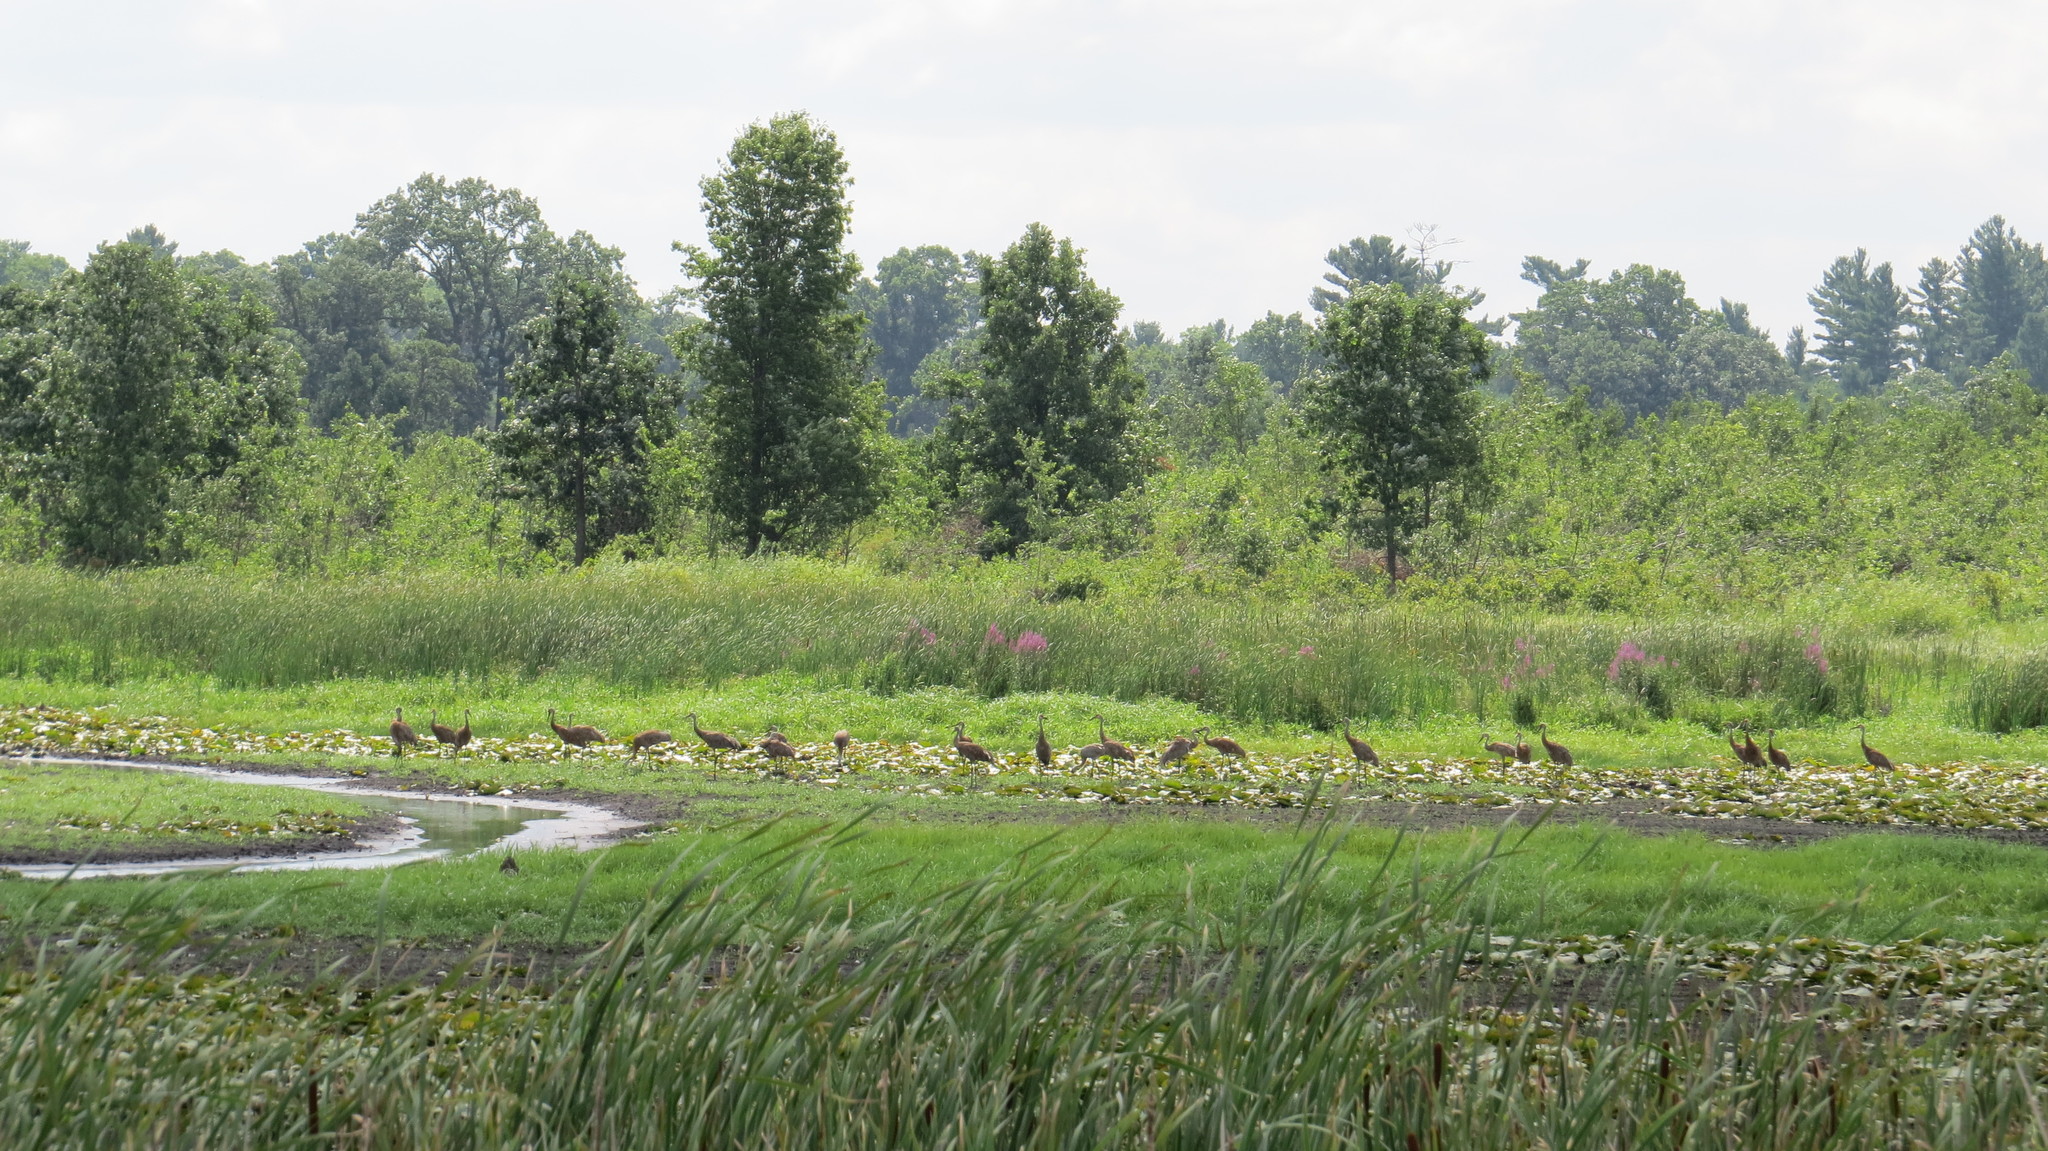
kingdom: Animalia
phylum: Chordata
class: Aves
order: Gruiformes
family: Gruidae
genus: Grus
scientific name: Grus canadensis
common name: Sandhill crane
